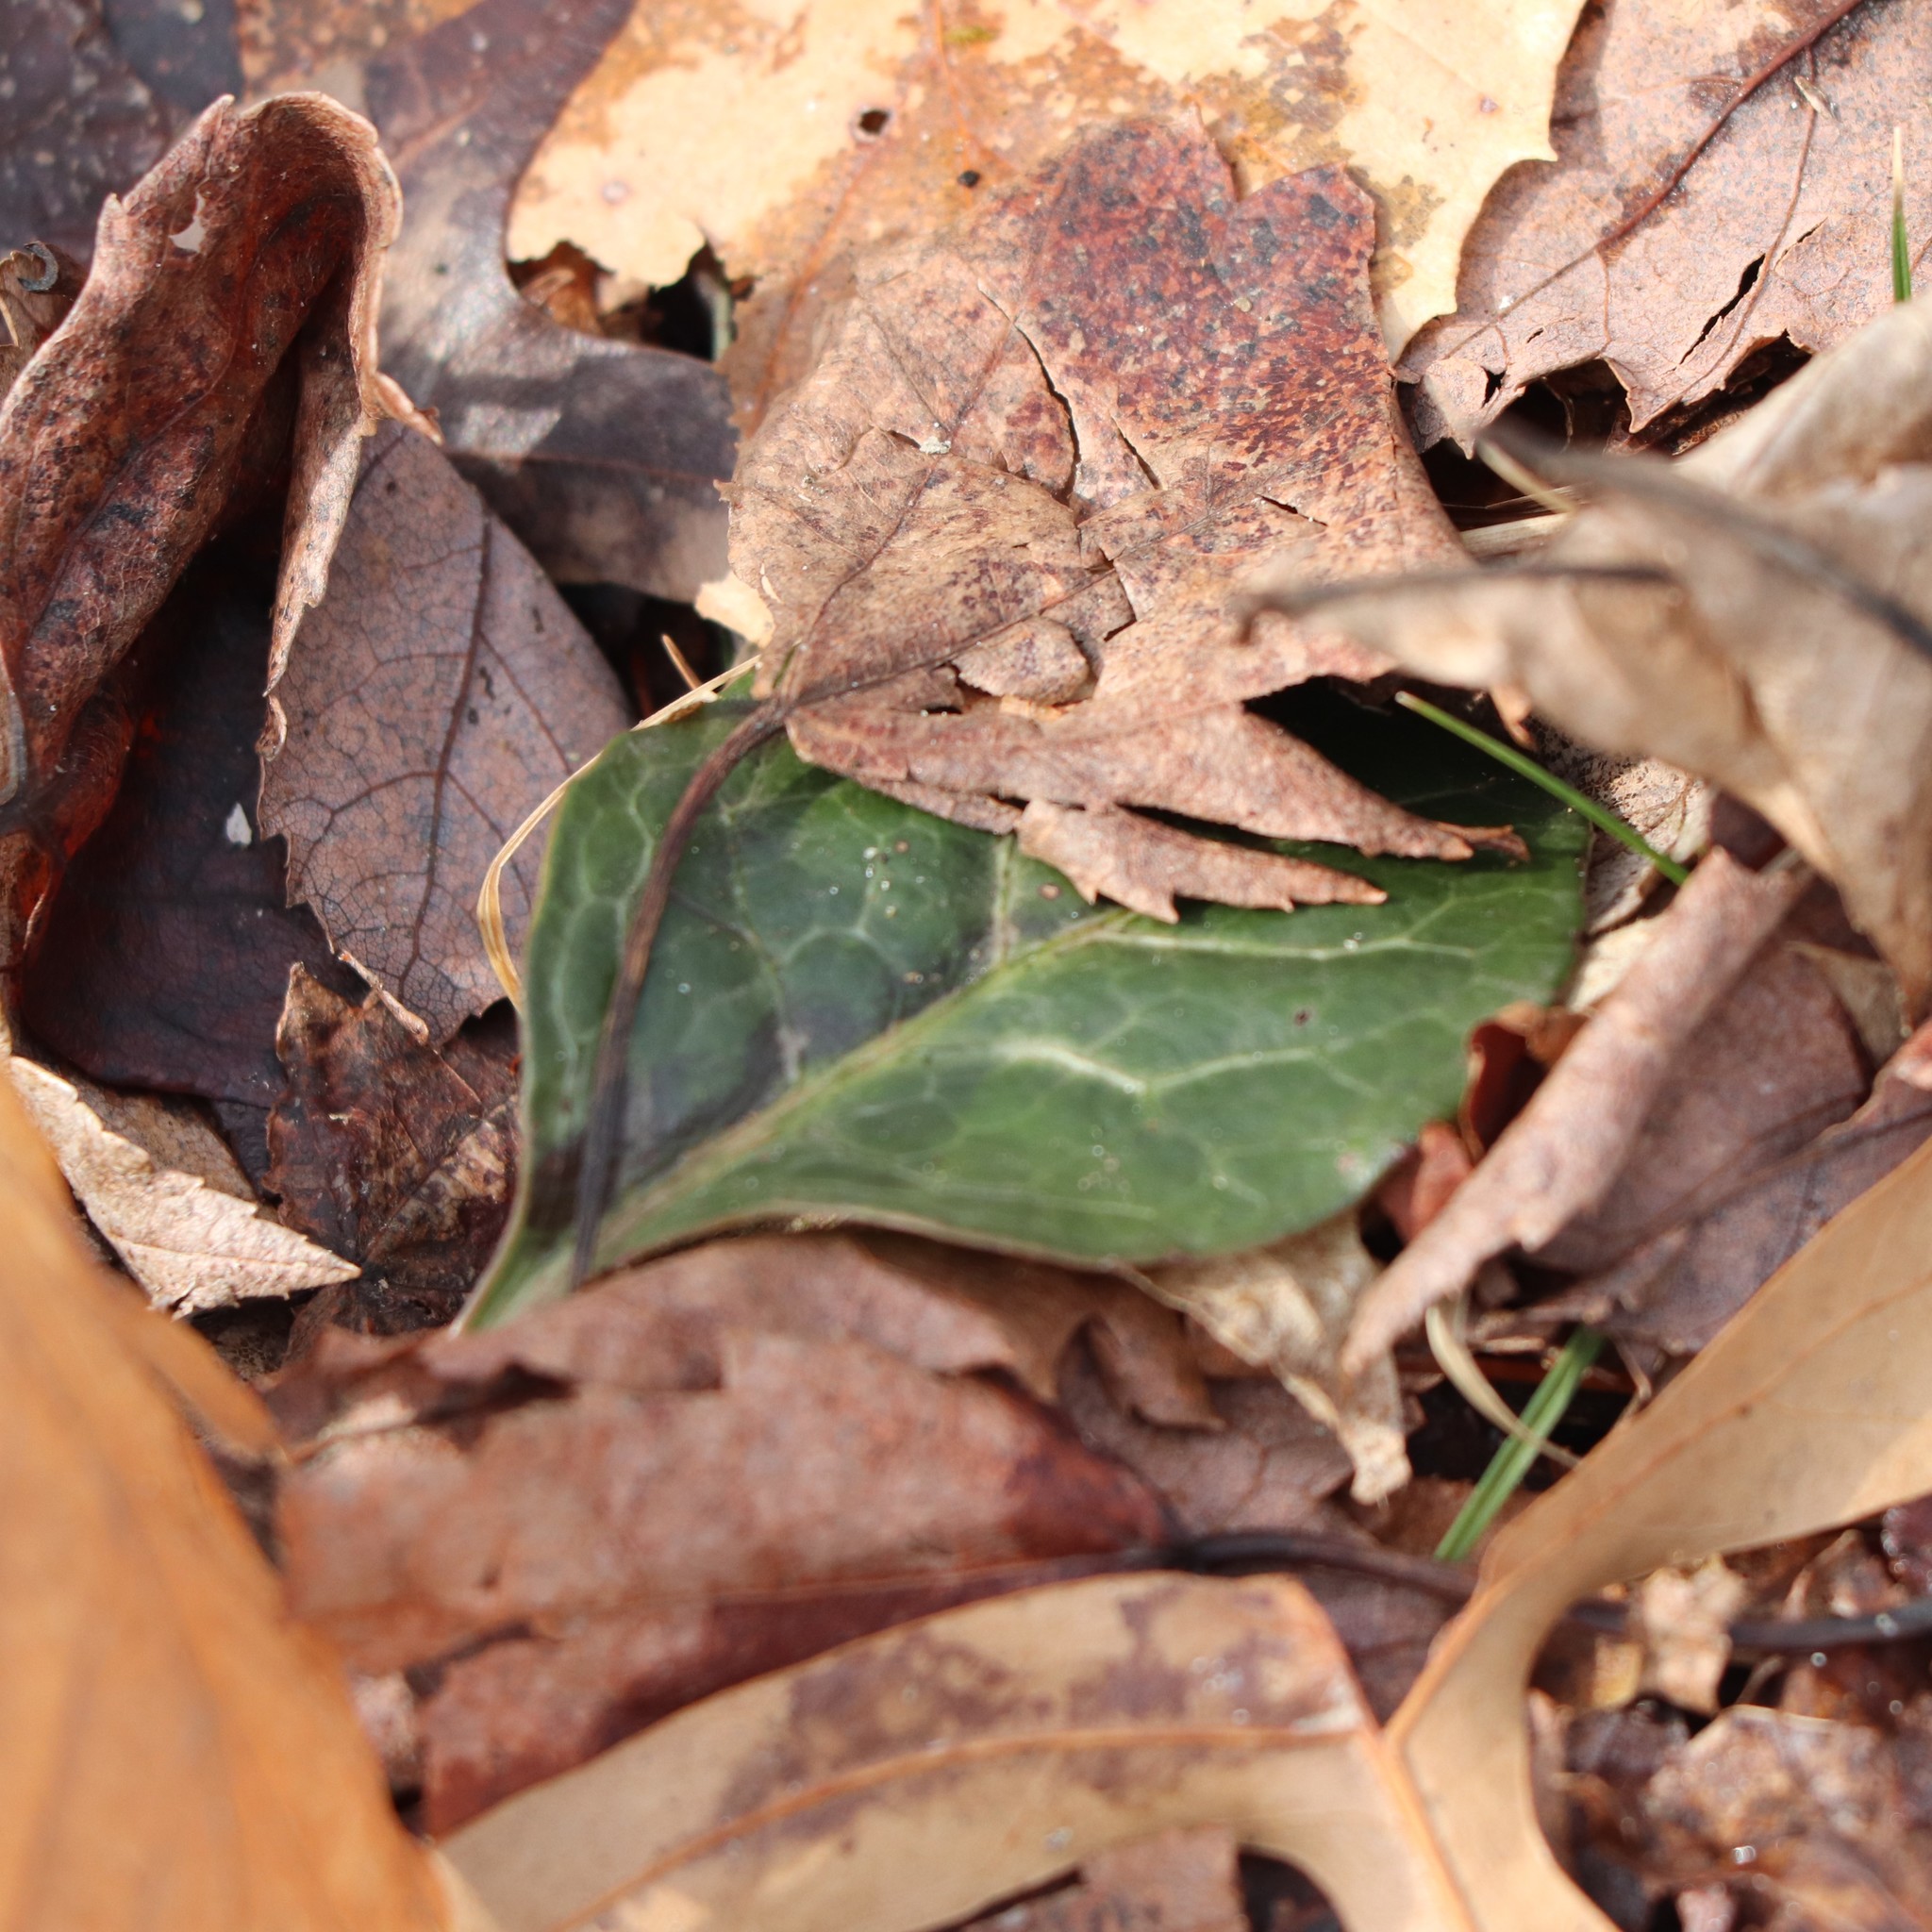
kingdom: Plantae
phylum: Tracheophyta
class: Magnoliopsida
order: Ericales
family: Ericaceae
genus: Pyrola
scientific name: Pyrola americana
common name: American wintergreen
